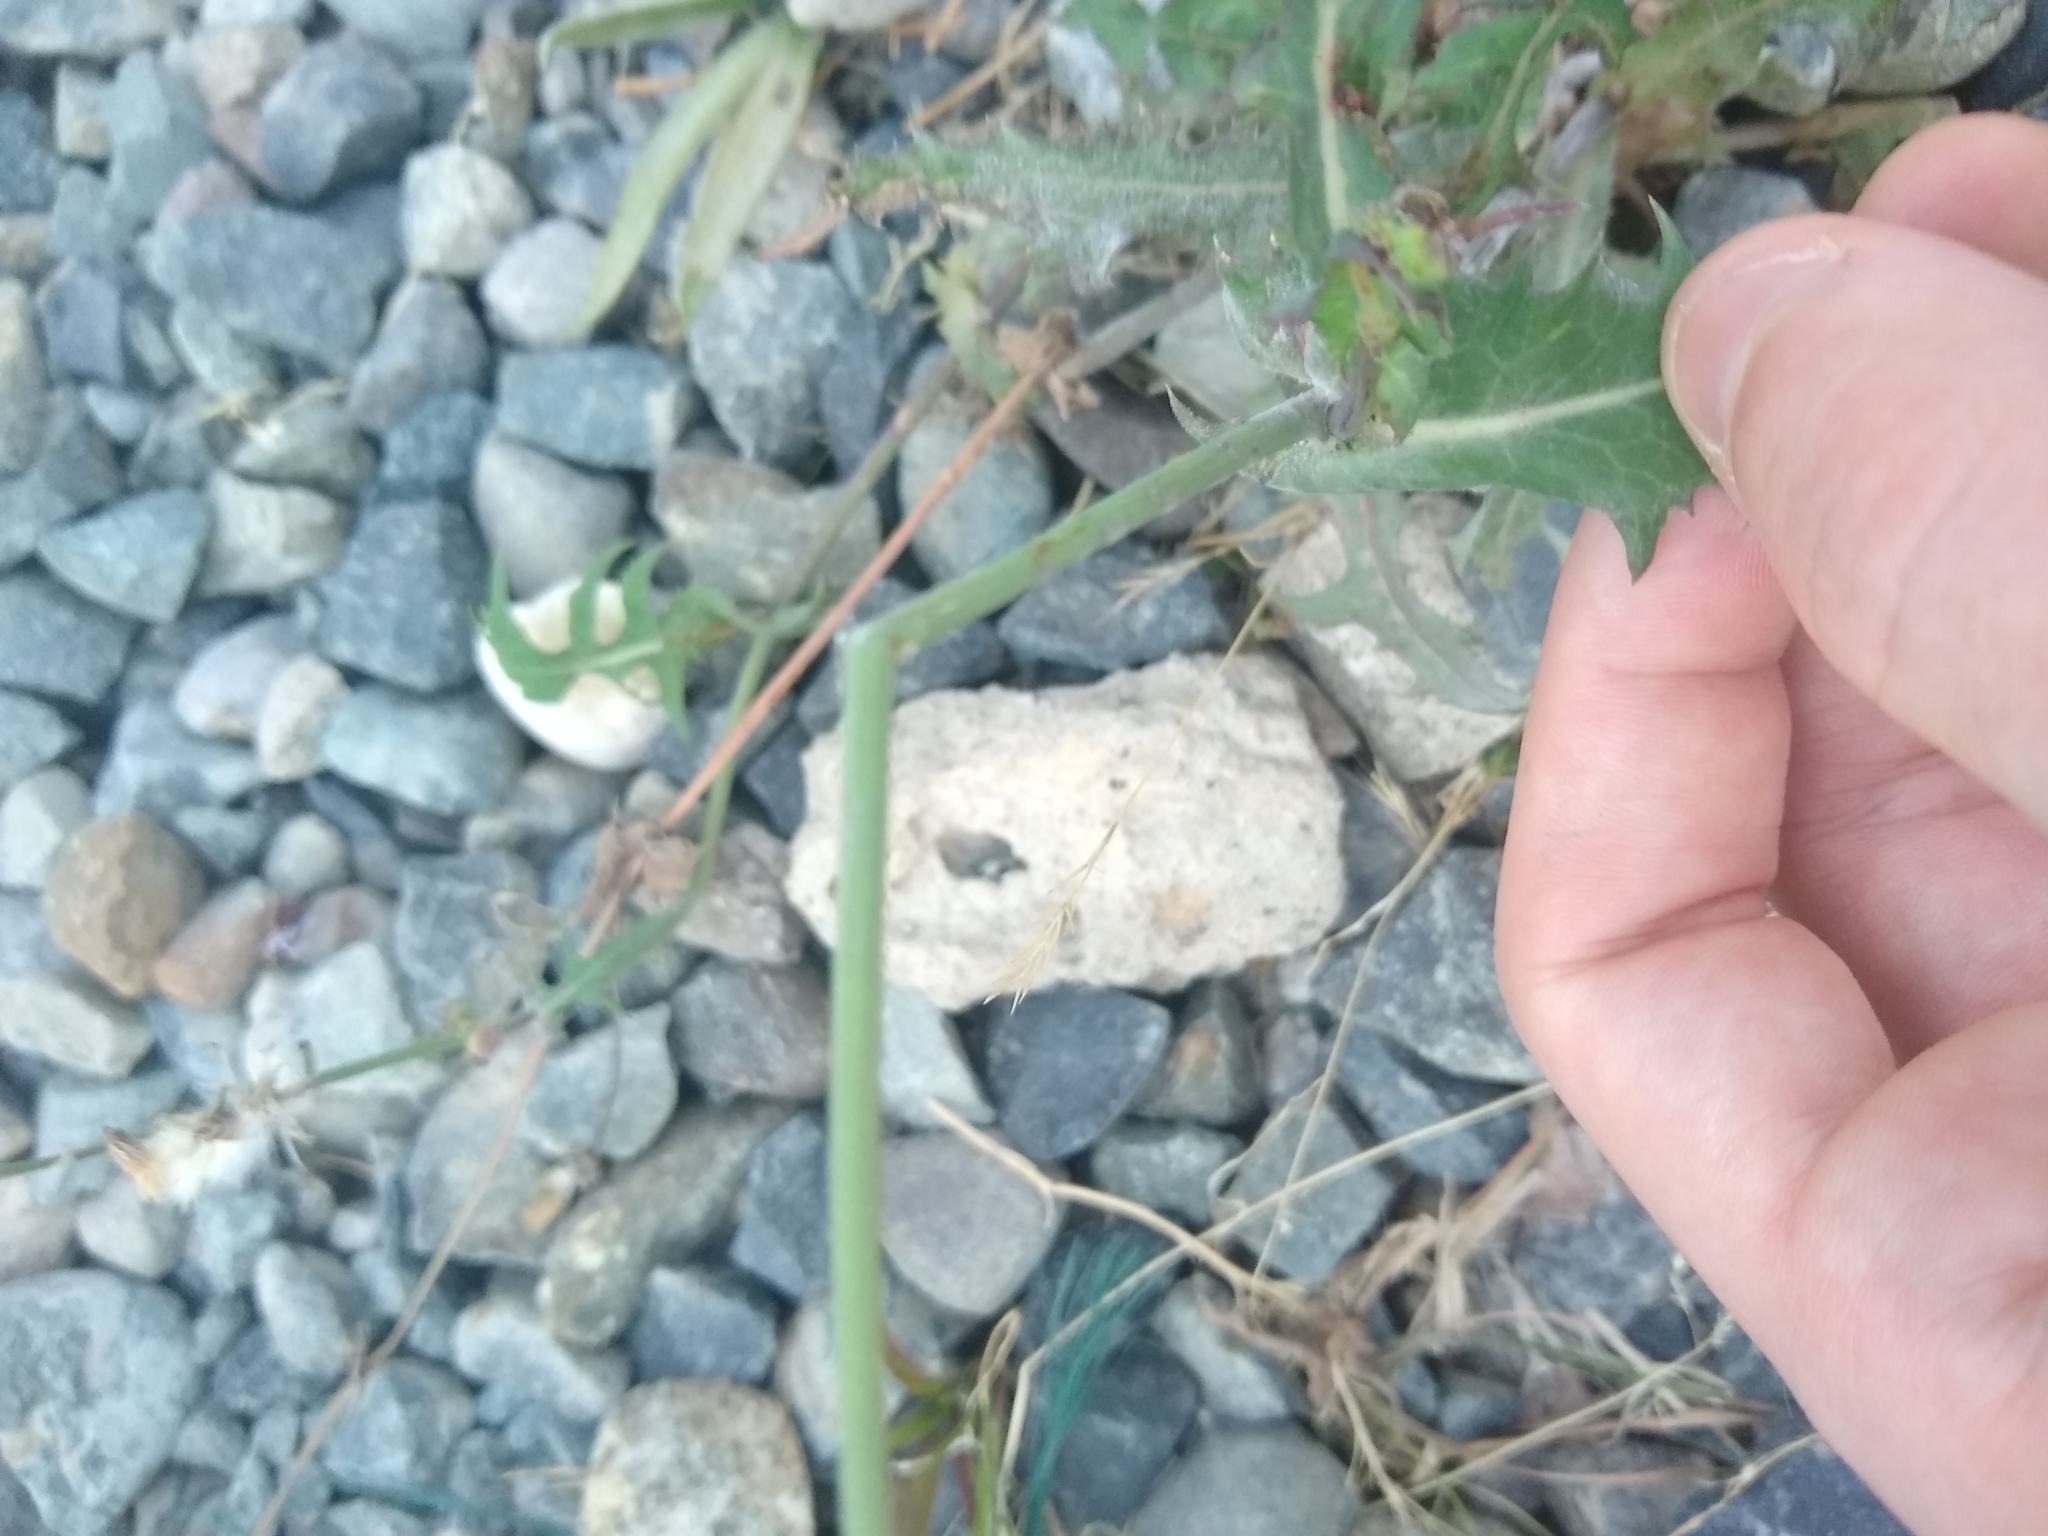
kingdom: Plantae
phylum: Tracheophyta
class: Magnoliopsida
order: Asterales
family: Asteraceae
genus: Sonchus
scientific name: Sonchus oleraceus
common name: Common sowthistle
